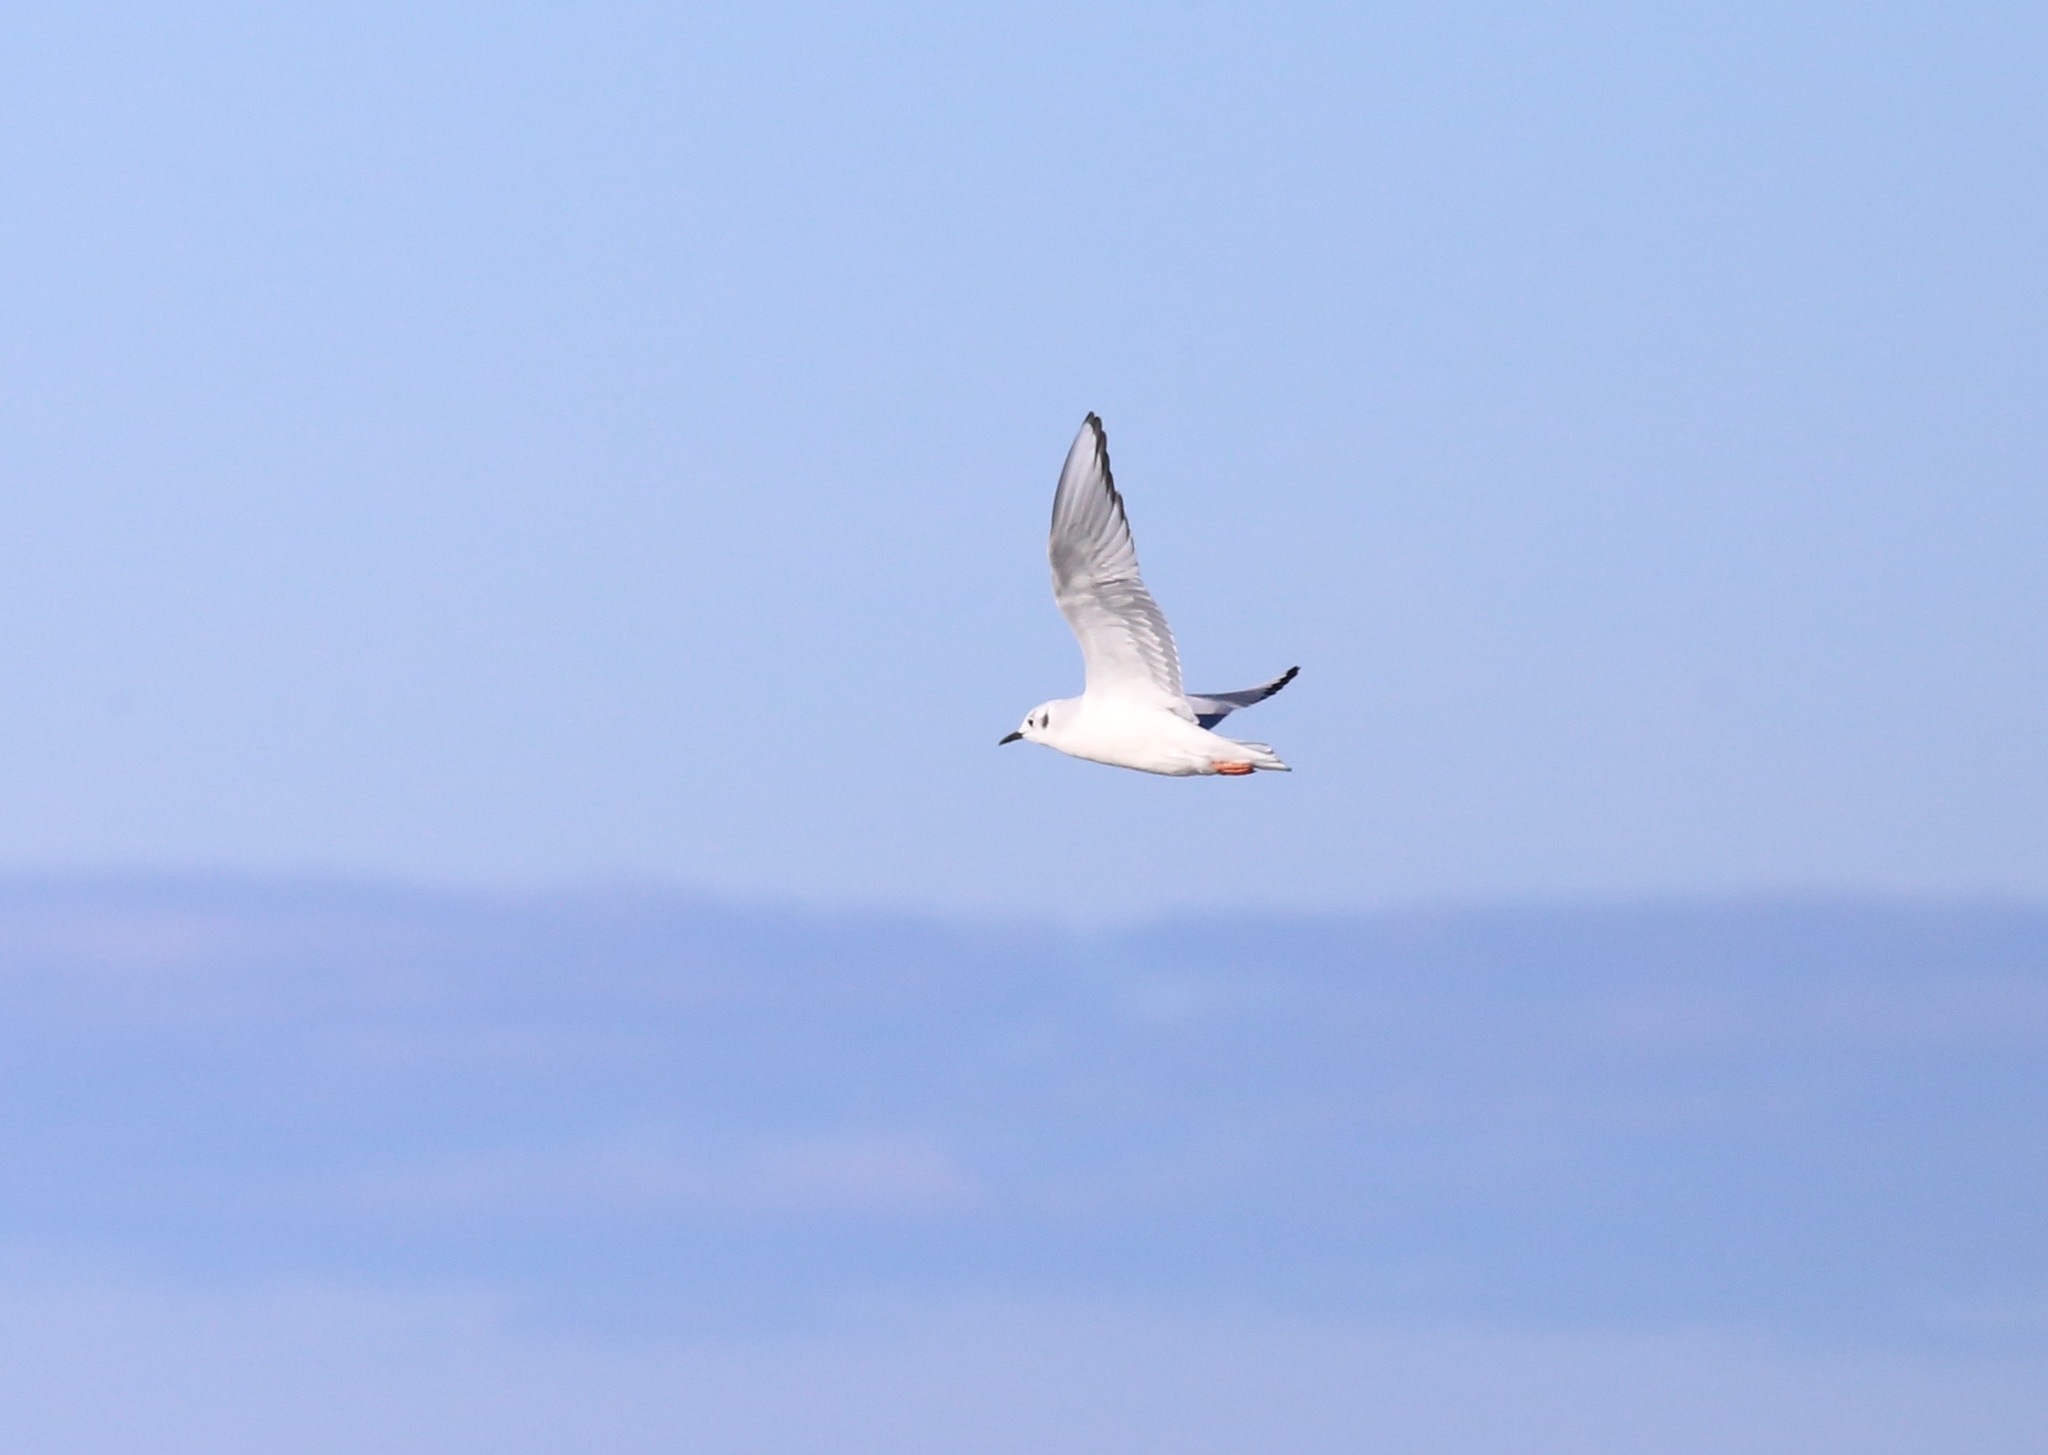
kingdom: Animalia
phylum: Chordata
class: Aves
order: Charadriiformes
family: Laridae
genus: Chroicocephalus
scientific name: Chroicocephalus philadelphia
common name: Bonaparte's gull
